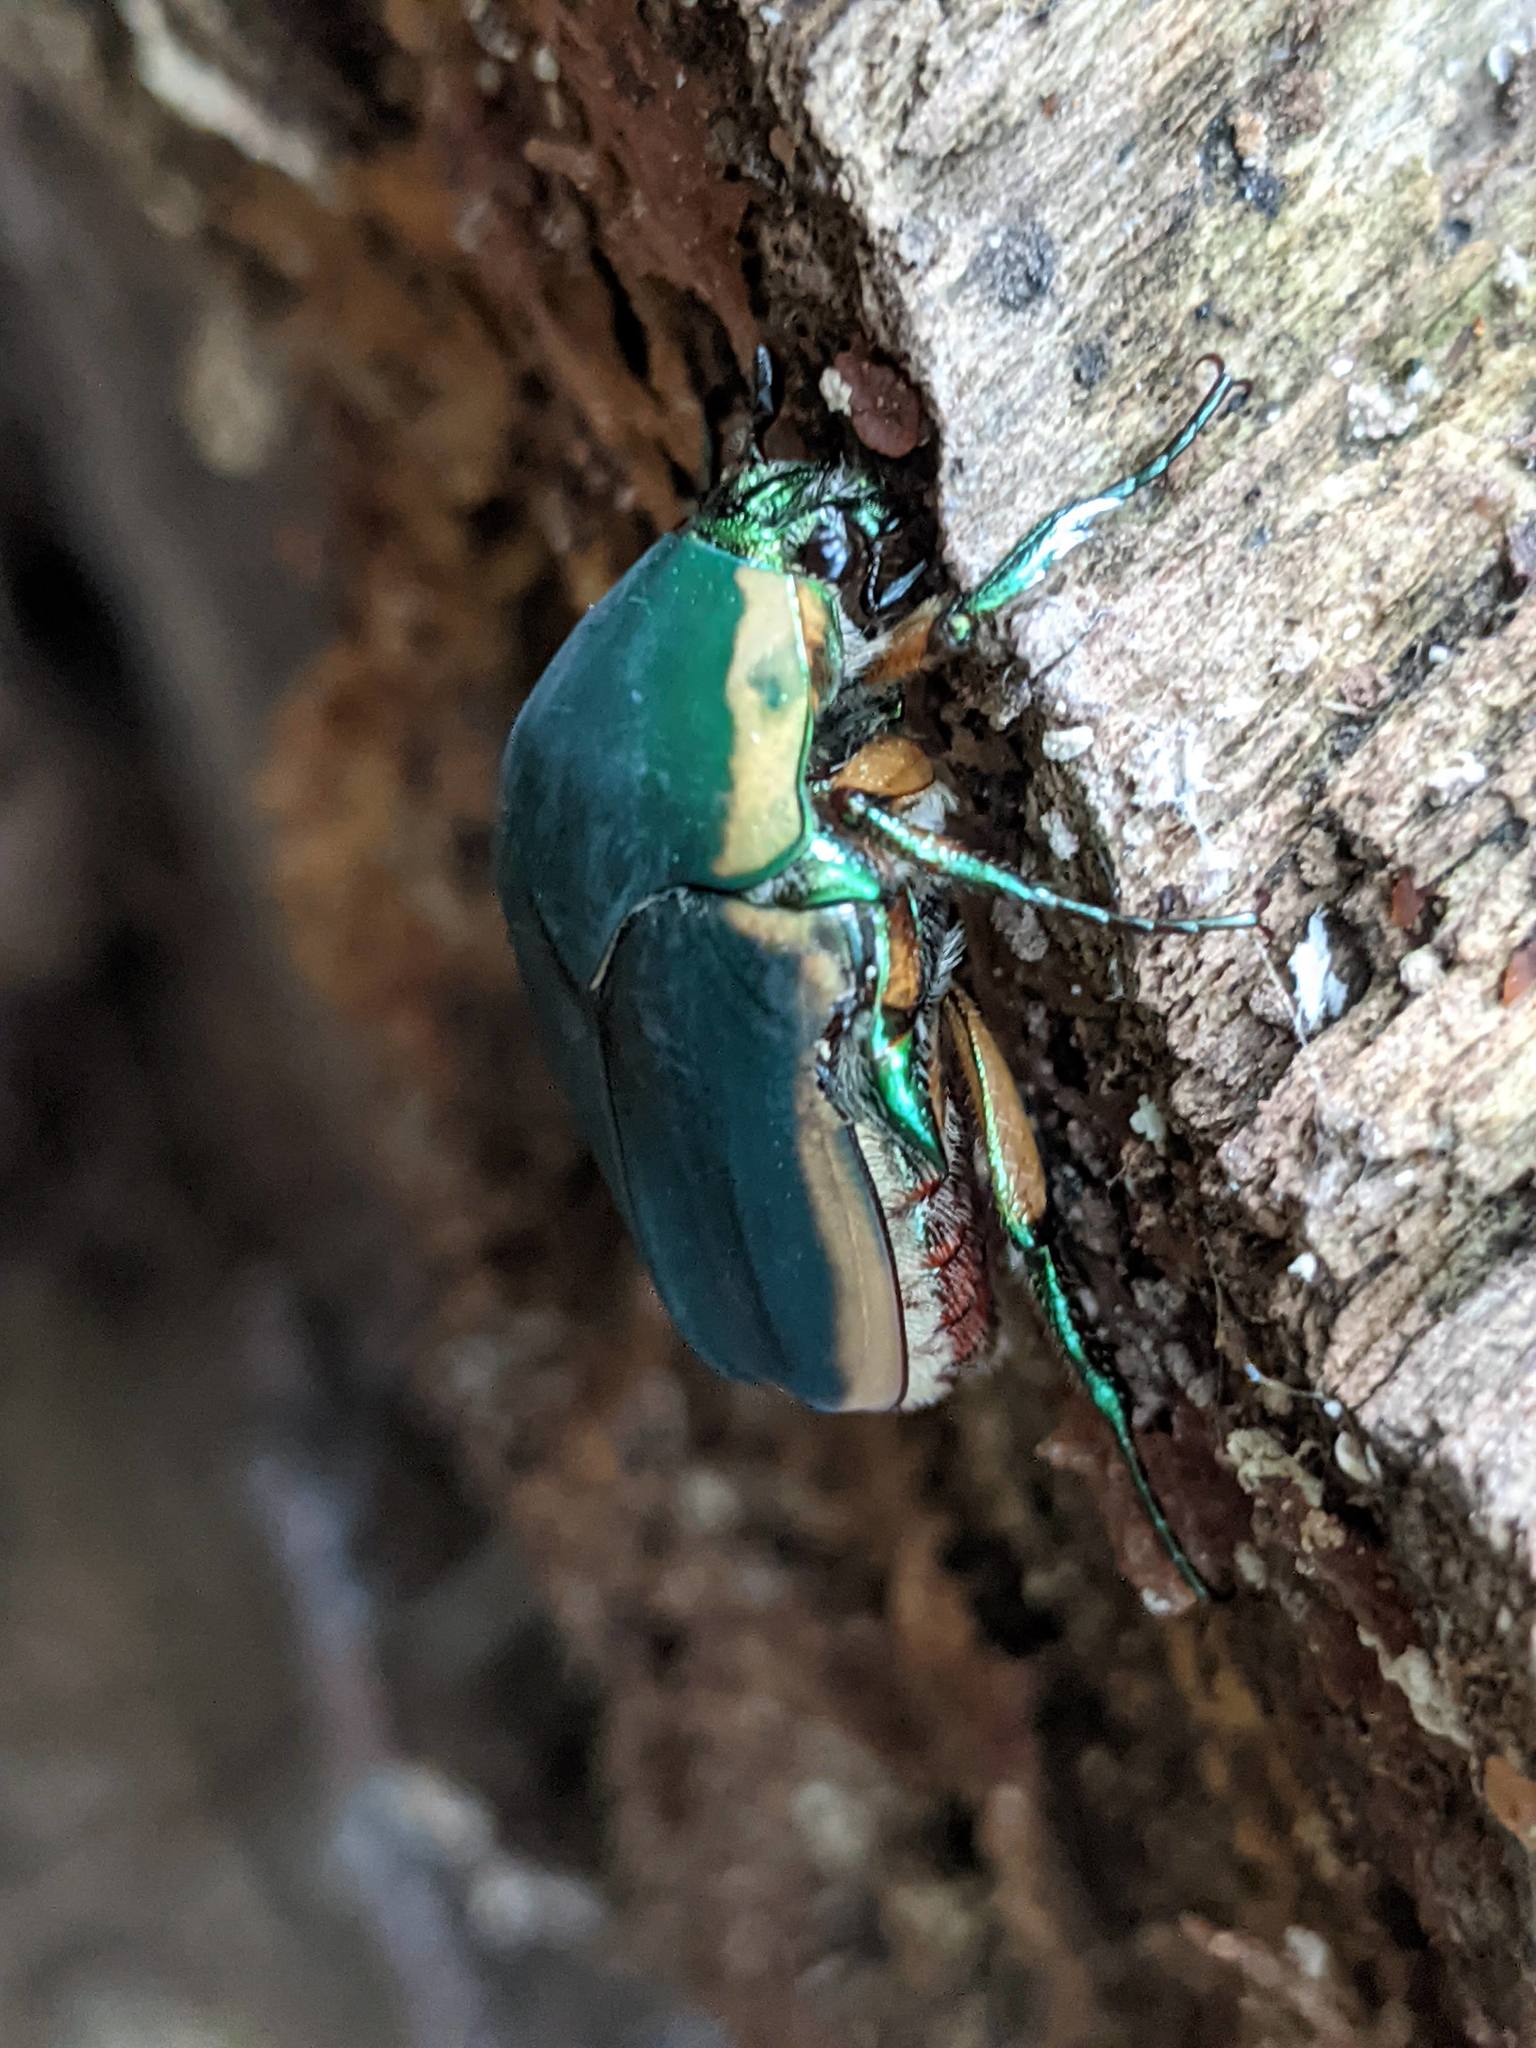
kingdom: Animalia
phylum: Arthropoda
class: Insecta
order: Coleoptera
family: Scarabaeidae
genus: Cotinis
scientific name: Cotinis nitida
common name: Common green june beetle
